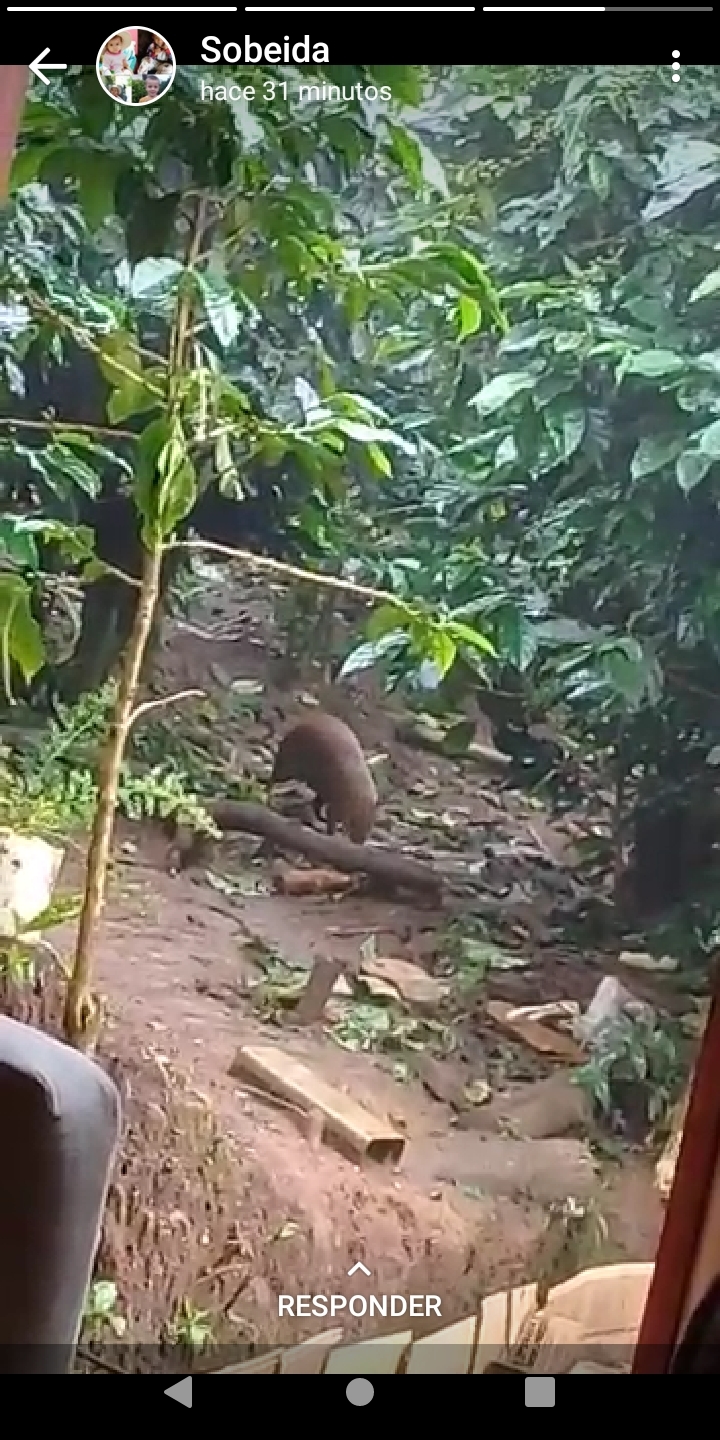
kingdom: Animalia
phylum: Chordata
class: Mammalia
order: Rodentia
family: Dasyproctidae
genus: Dasyprocta
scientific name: Dasyprocta punctata
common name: Central american agouti
